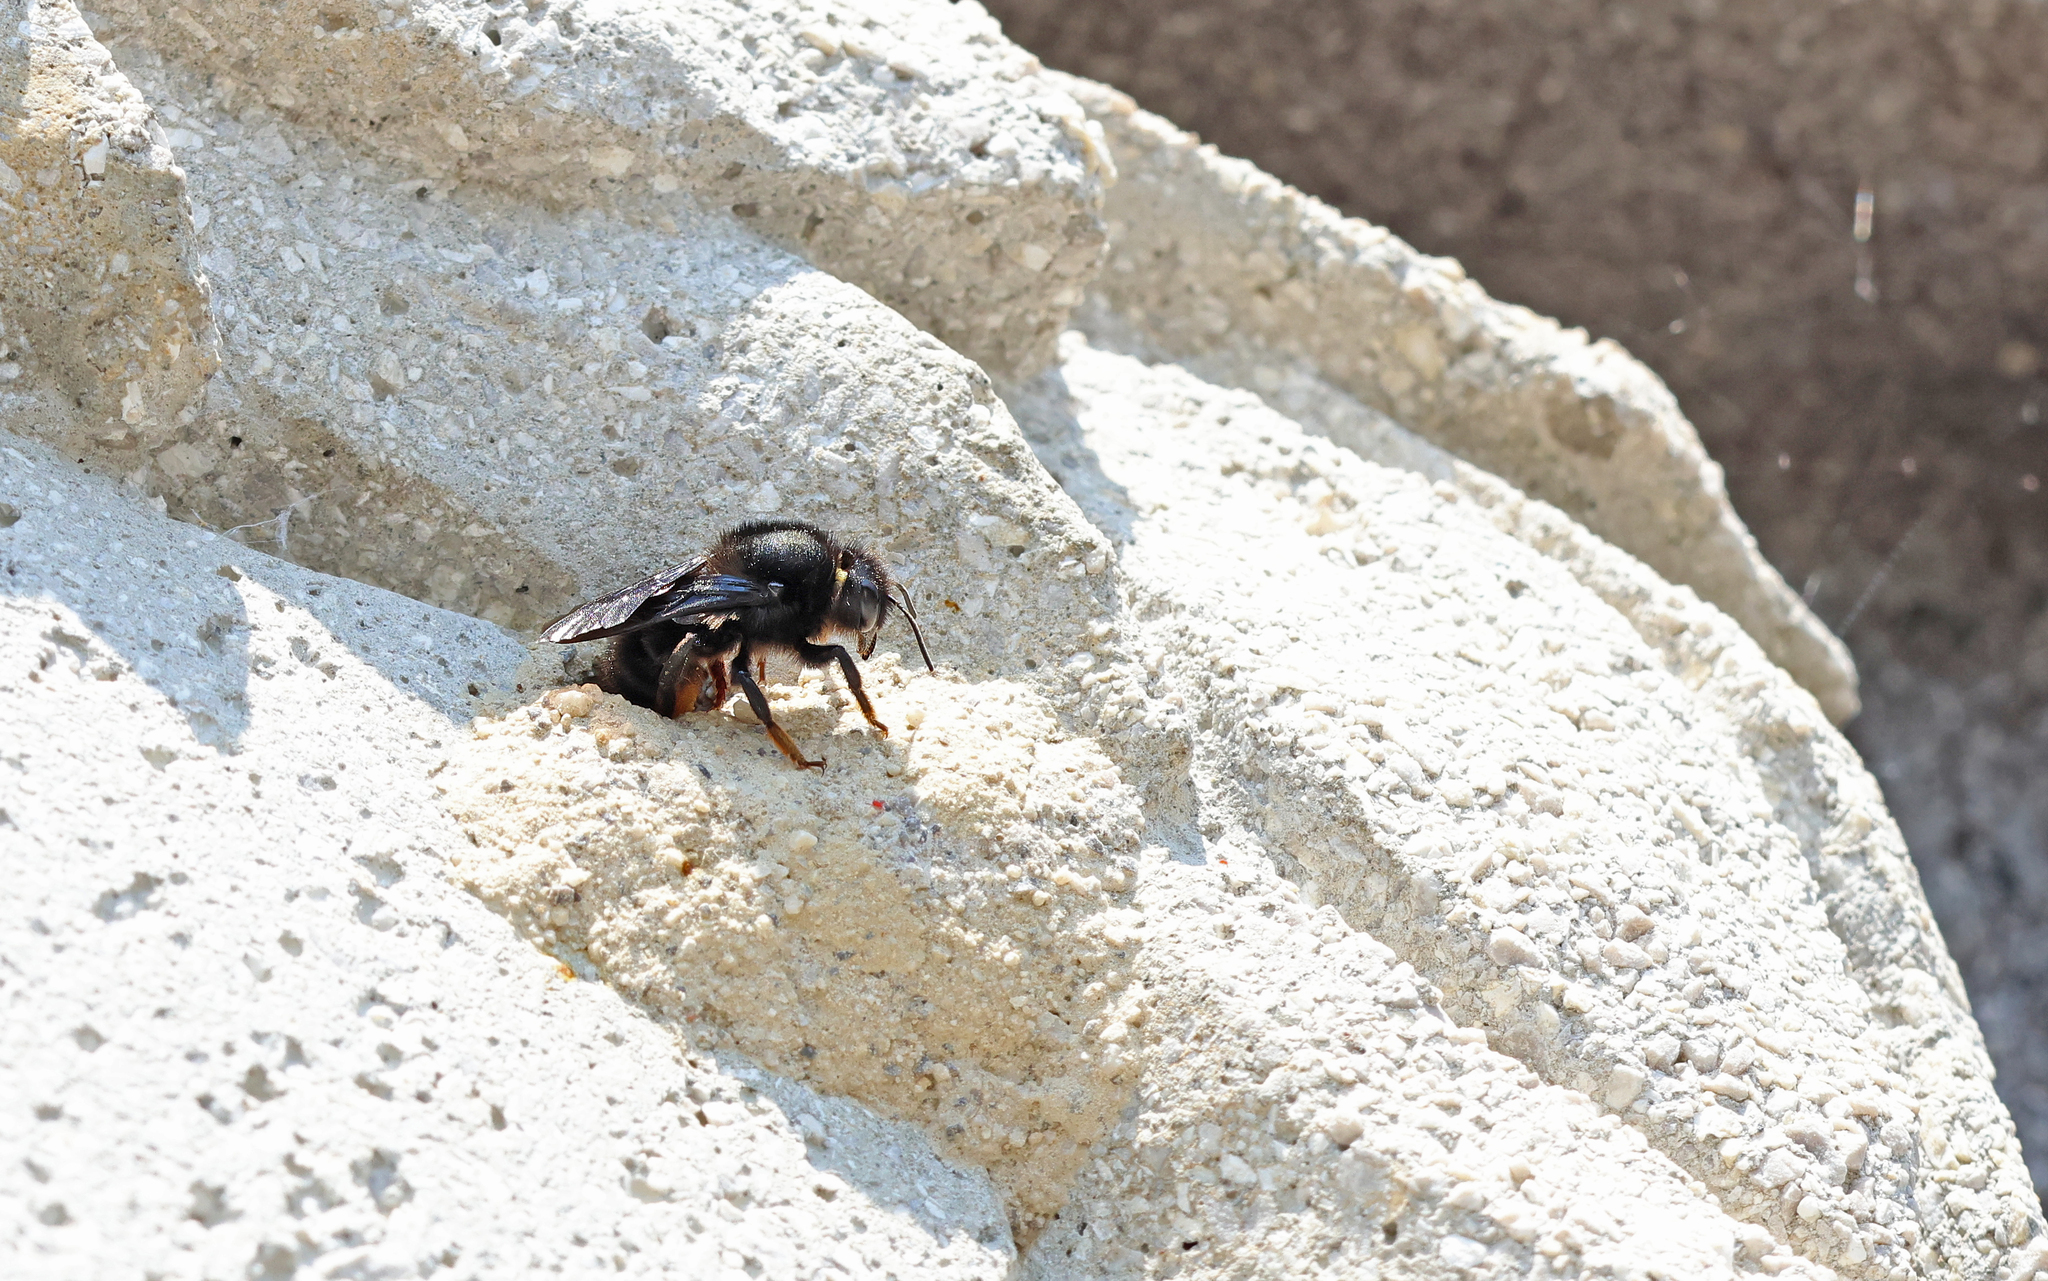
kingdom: Animalia
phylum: Arthropoda
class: Insecta
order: Hymenoptera
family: Megachilidae
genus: Megachile
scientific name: Megachile parietina
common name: Black mud bee
